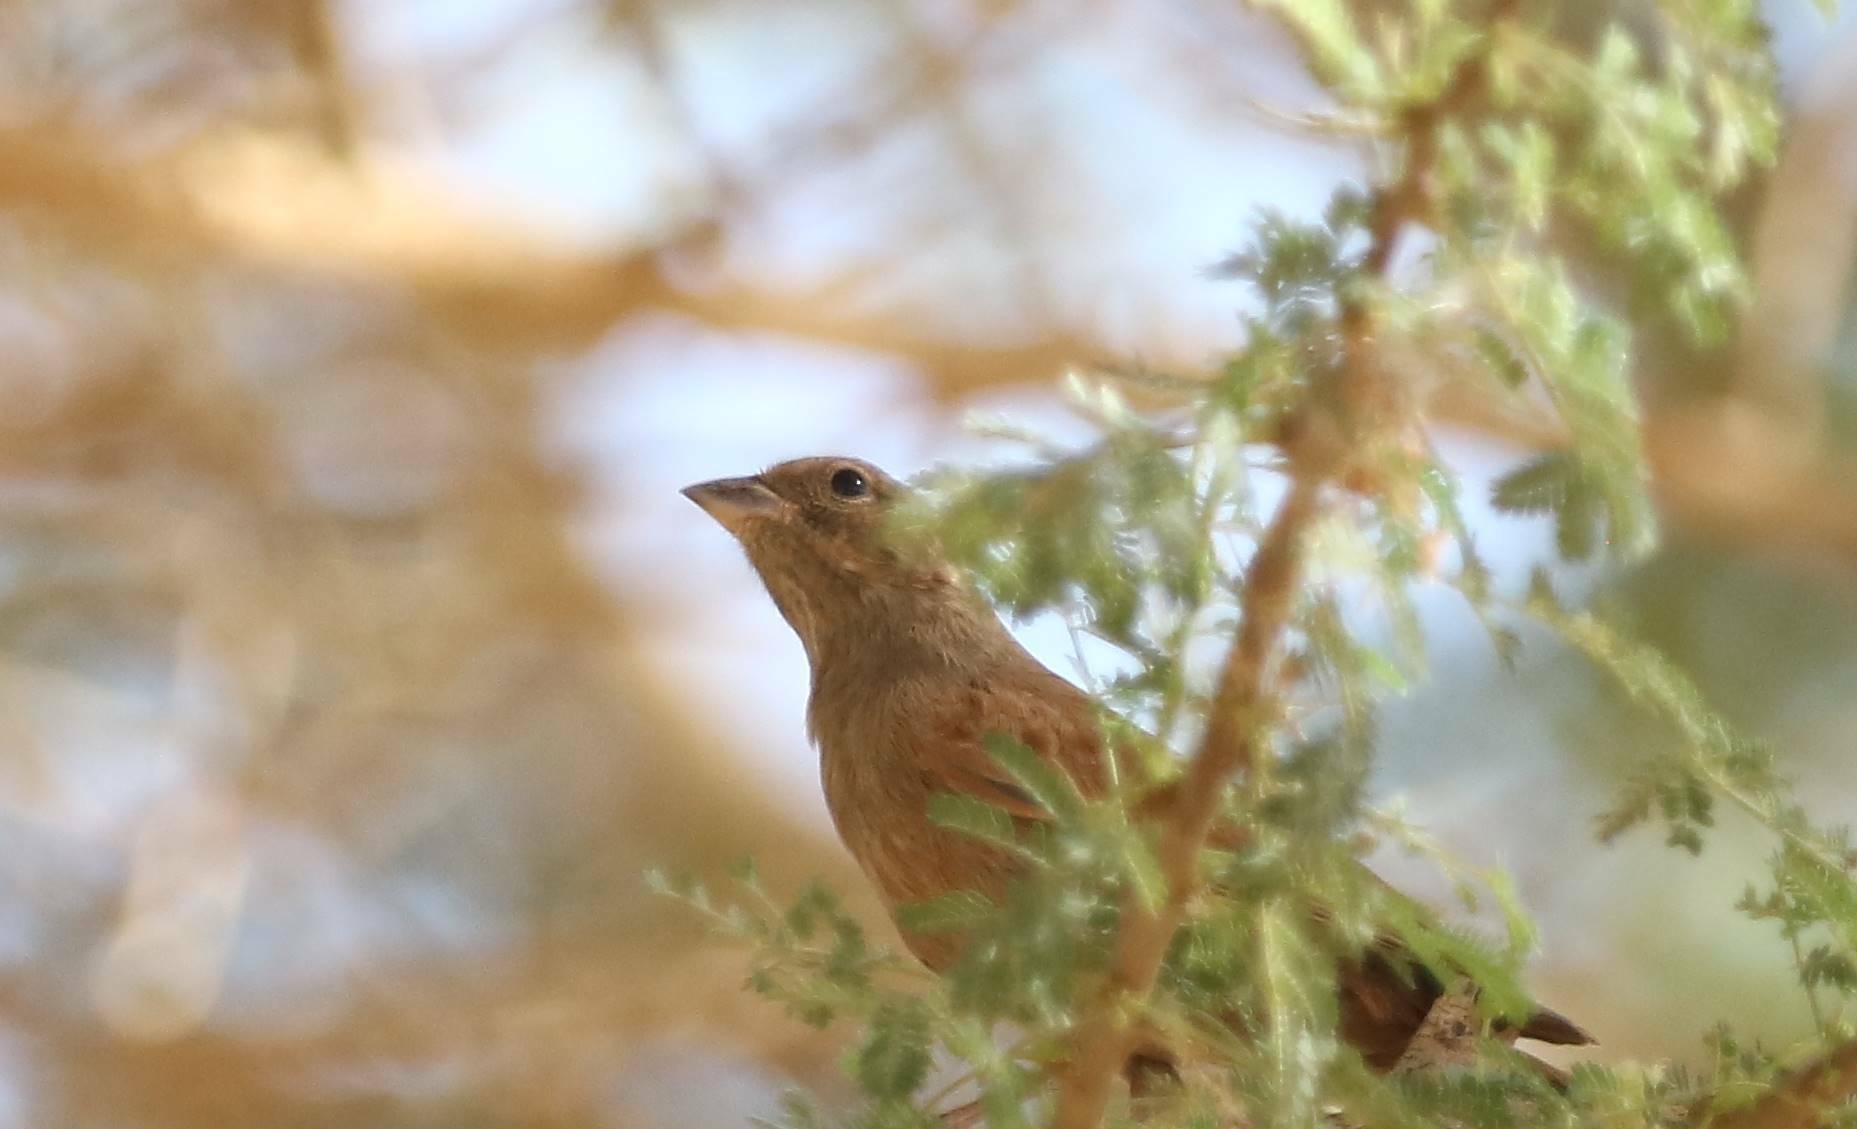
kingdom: Animalia
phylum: Chordata
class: Aves
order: Passeriformes
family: Emberizidae
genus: Emberiza
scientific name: Emberiza sahari
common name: House bunting
